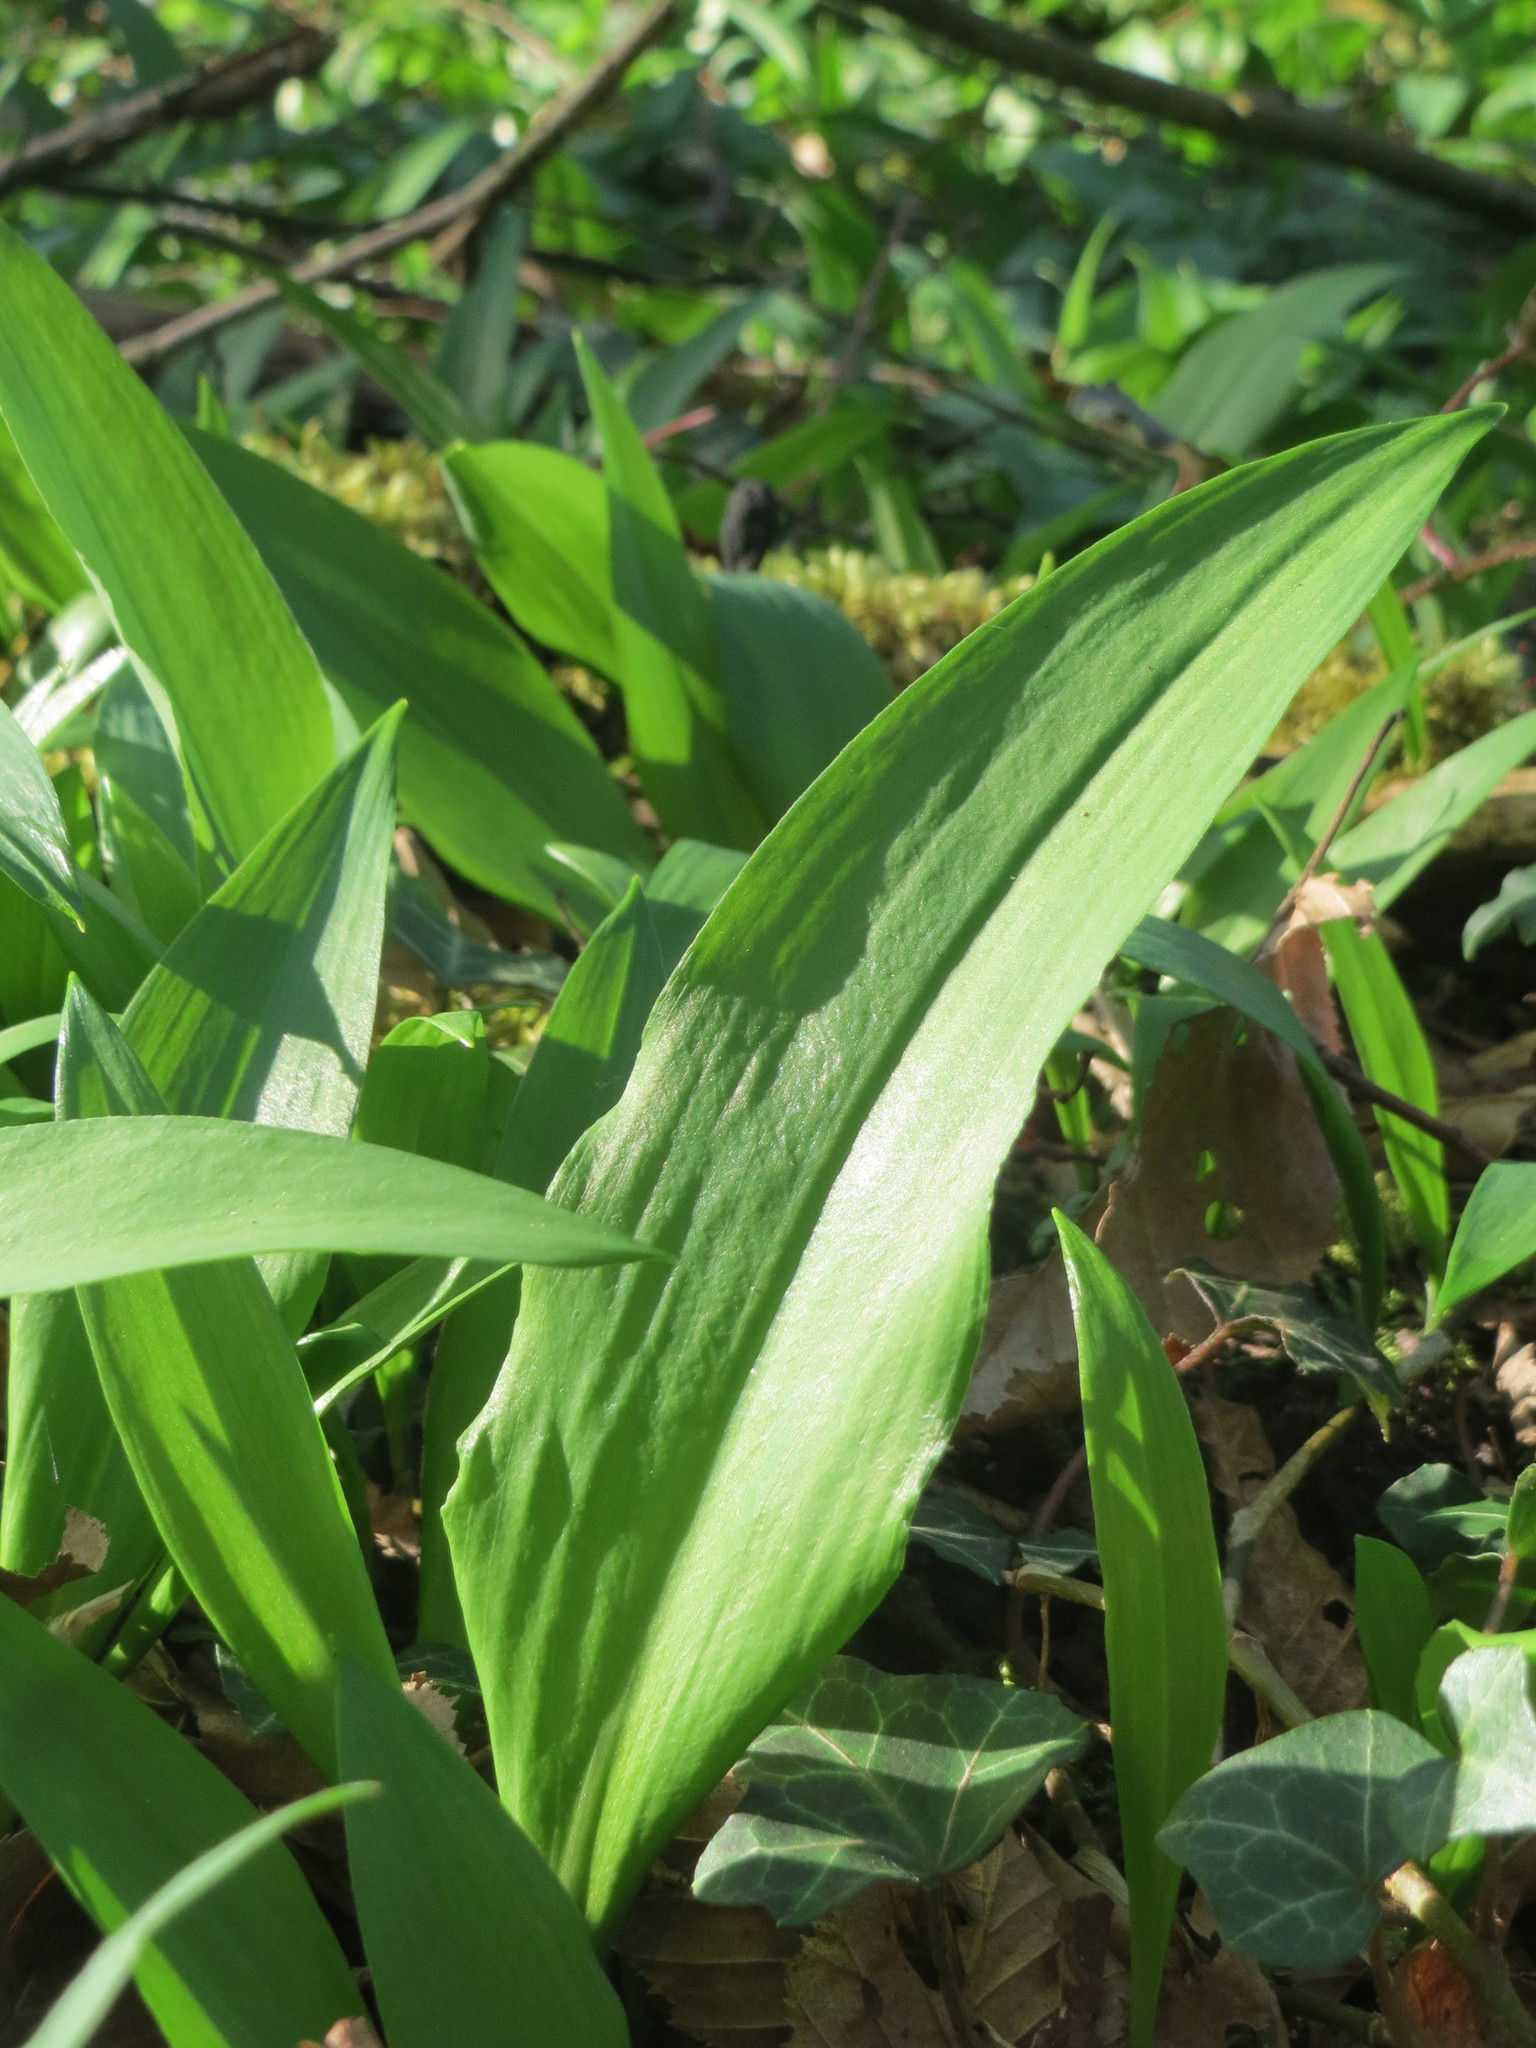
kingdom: Plantae
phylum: Tracheophyta
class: Liliopsida
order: Asparagales
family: Amaryllidaceae
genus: Allium
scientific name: Allium ursinum
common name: Ramsons
